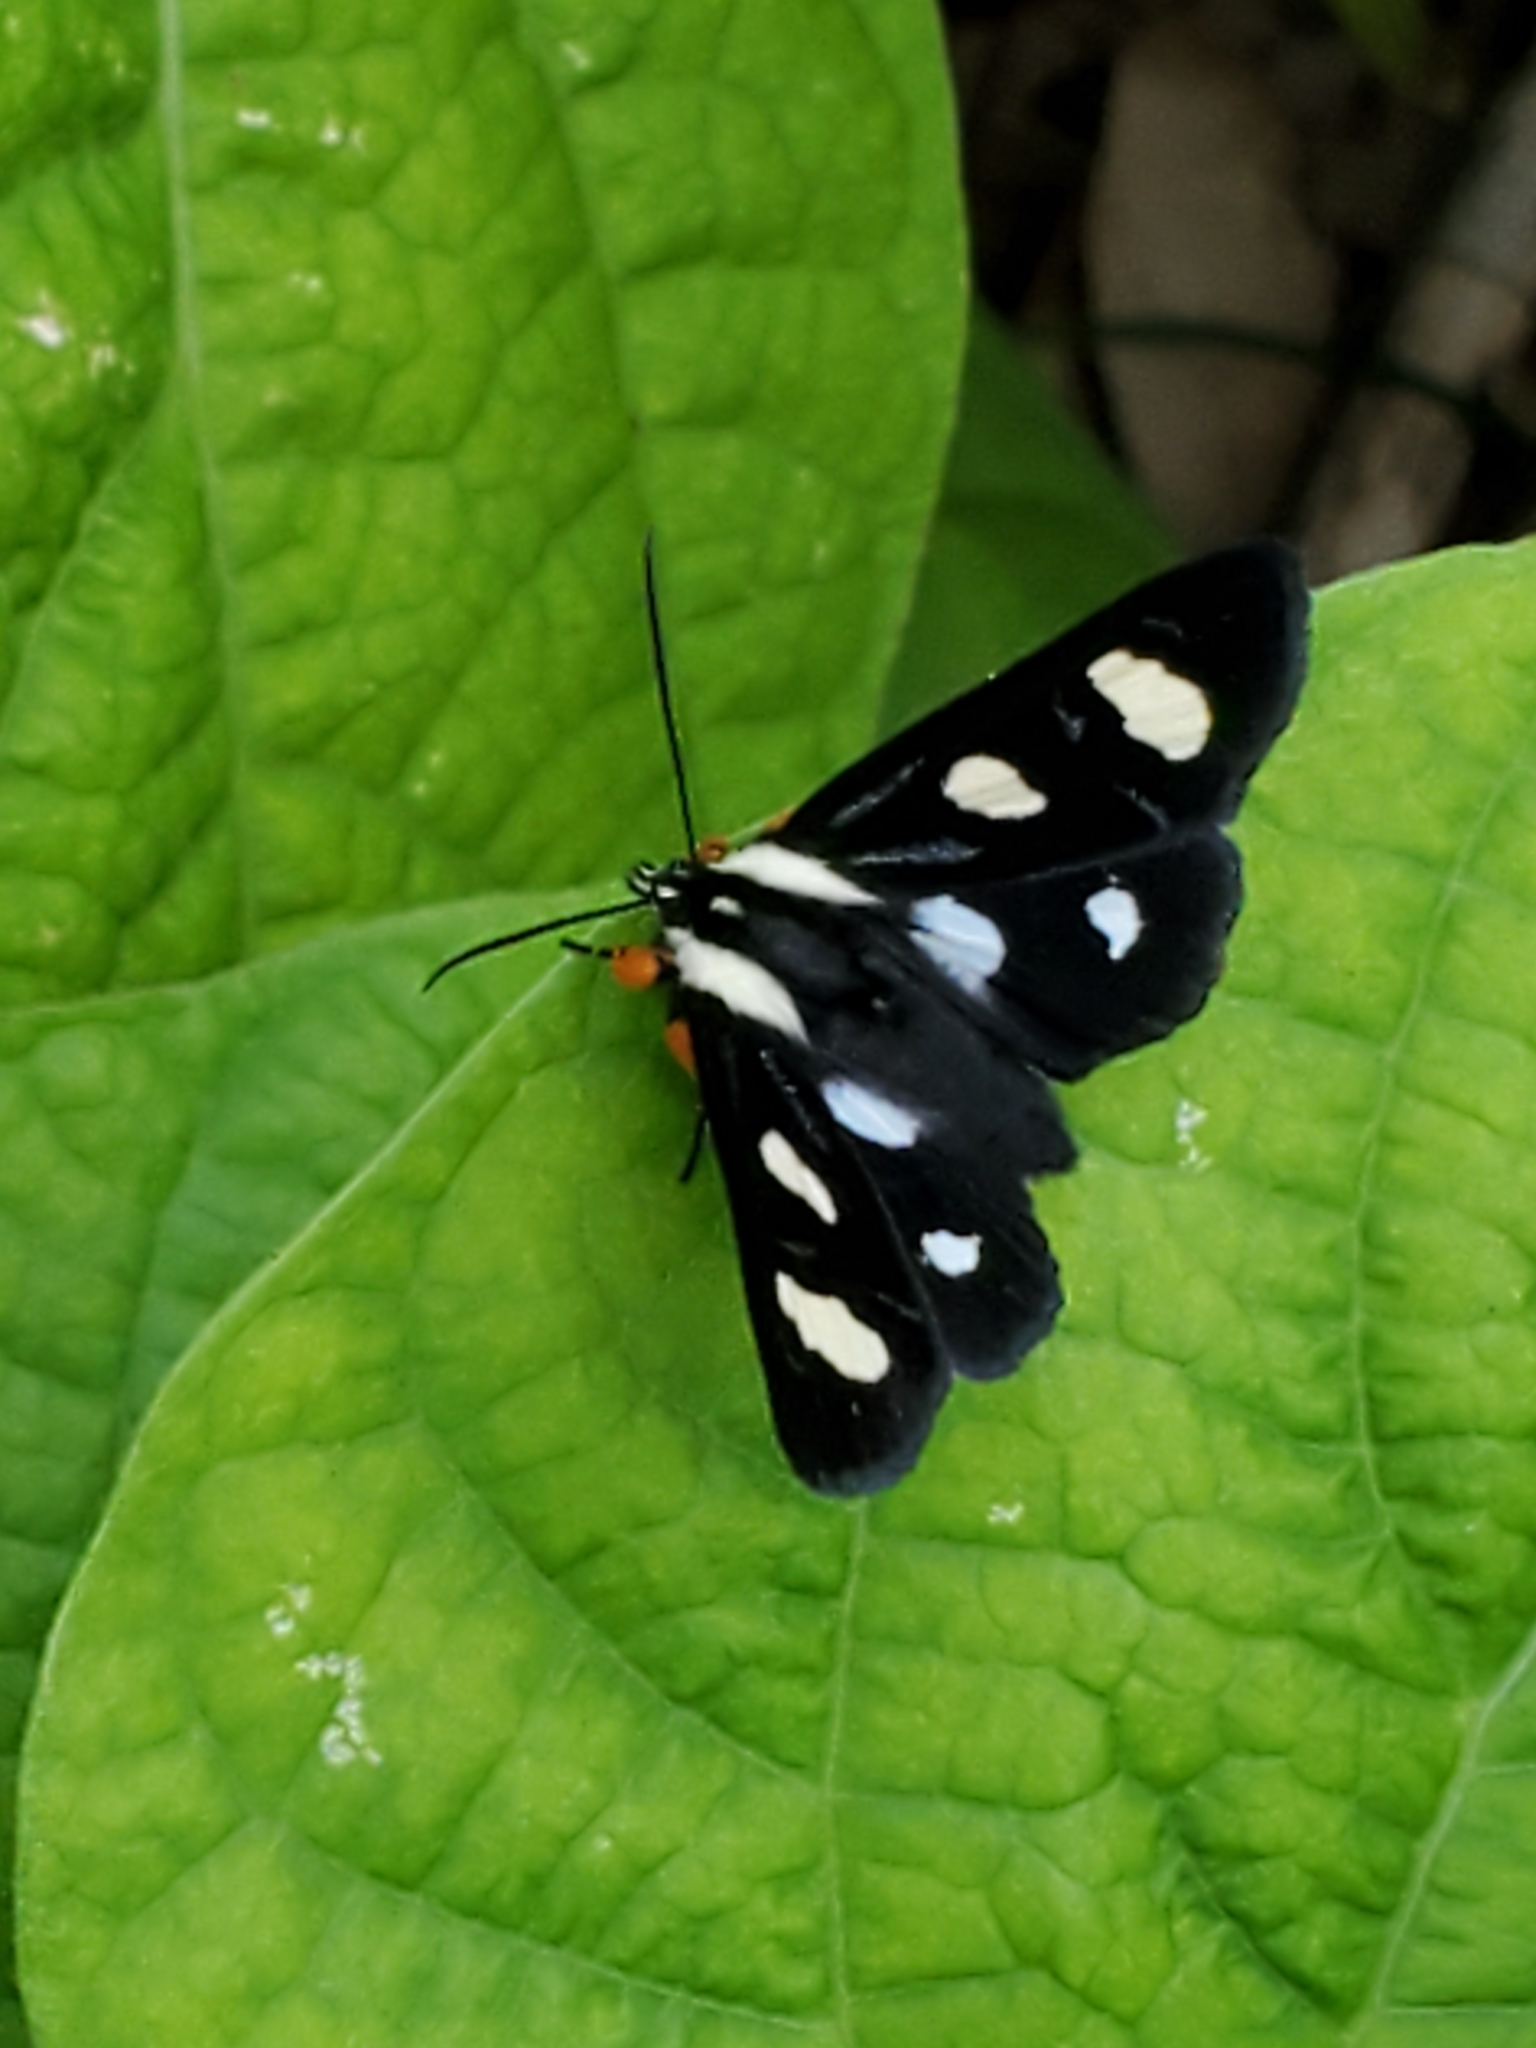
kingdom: Animalia
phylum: Arthropoda
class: Insecta
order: Lepidoptera
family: Noctuidae
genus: Alypia
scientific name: Alypia octomaculata
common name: Eight-spotted forester
